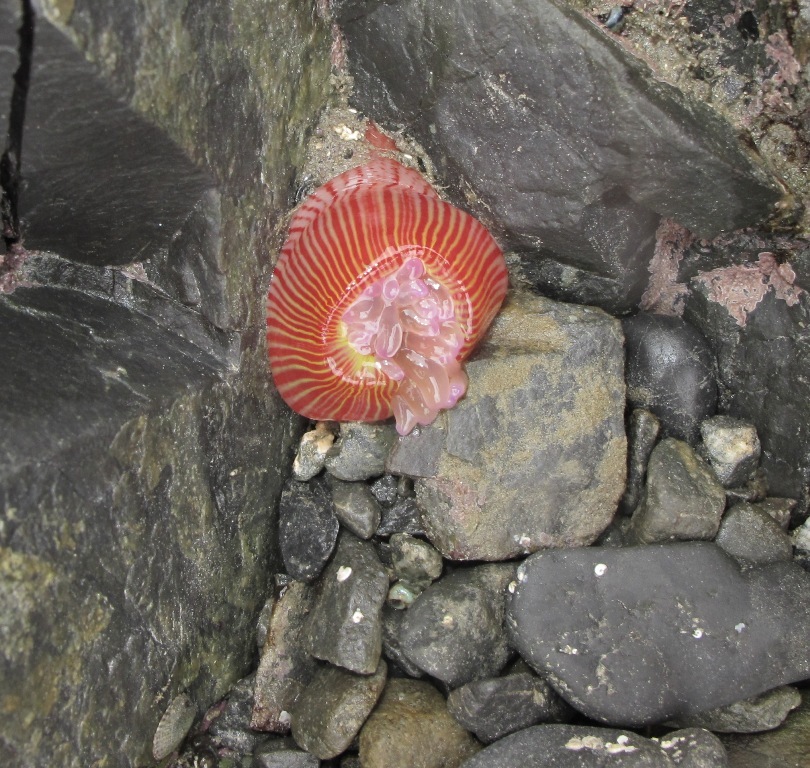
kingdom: Animalia
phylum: Cnidaria
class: Anthozoa
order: Actiniaria
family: Actiniidae
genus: Epiactis
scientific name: Epiactis thompsoni
